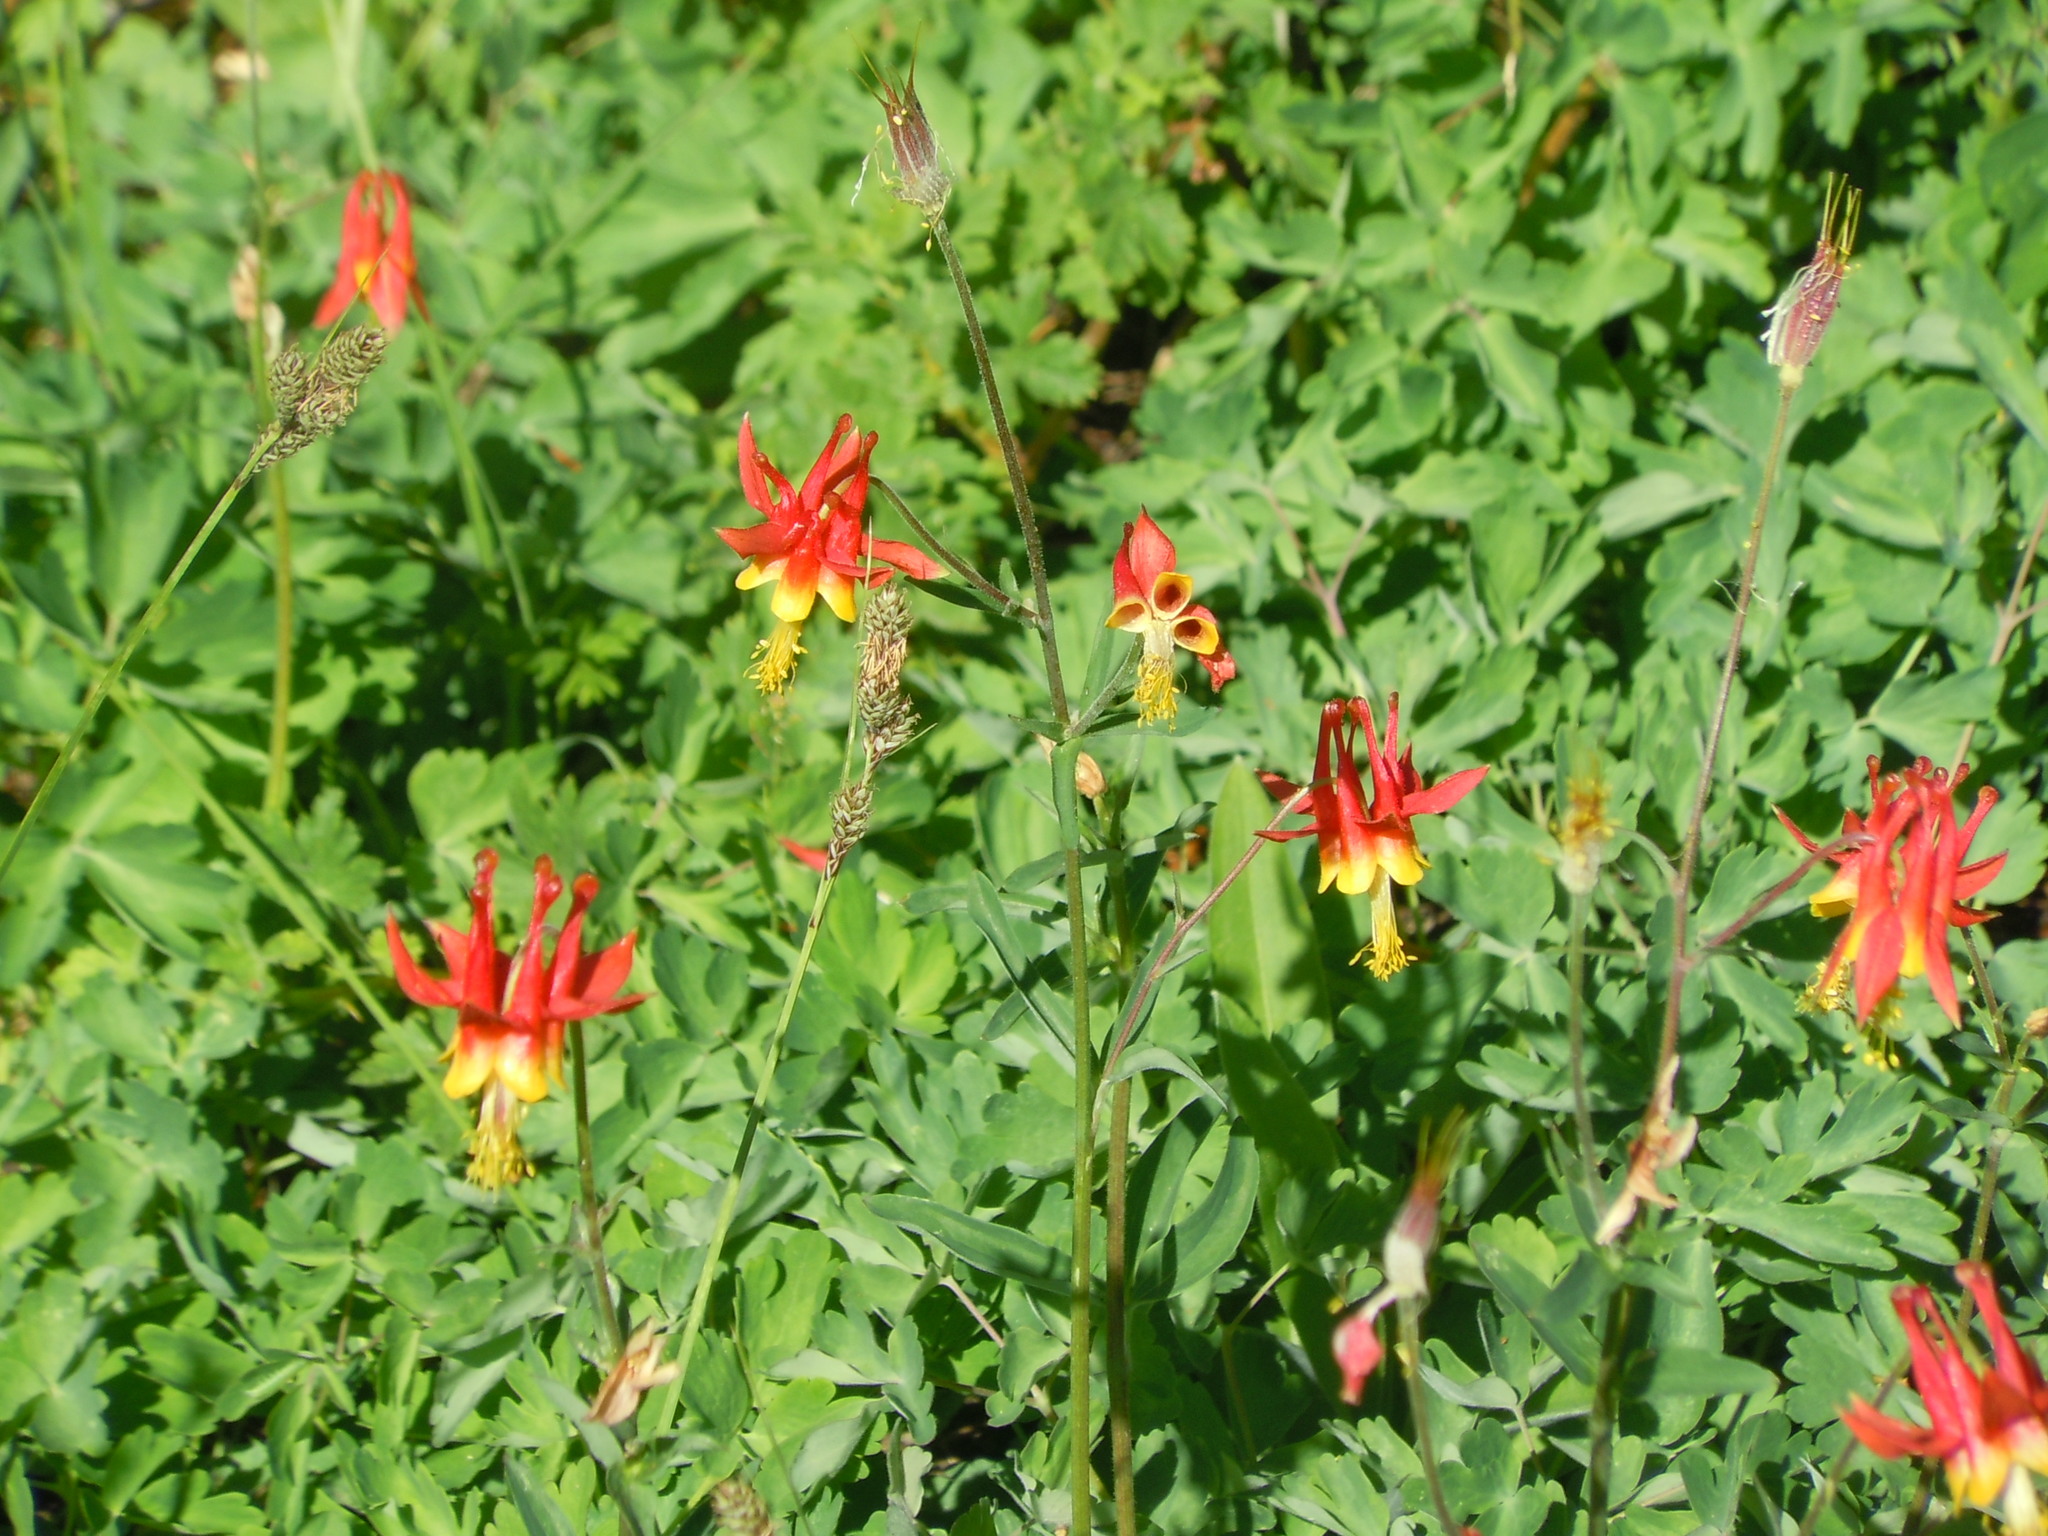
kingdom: Plantae
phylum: Tracheophyta
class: Magnoliopsida
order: Ranunculales
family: Ranunculaceae
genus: Aquilegia
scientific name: Aquilegia formosa
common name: Sitka columbine
